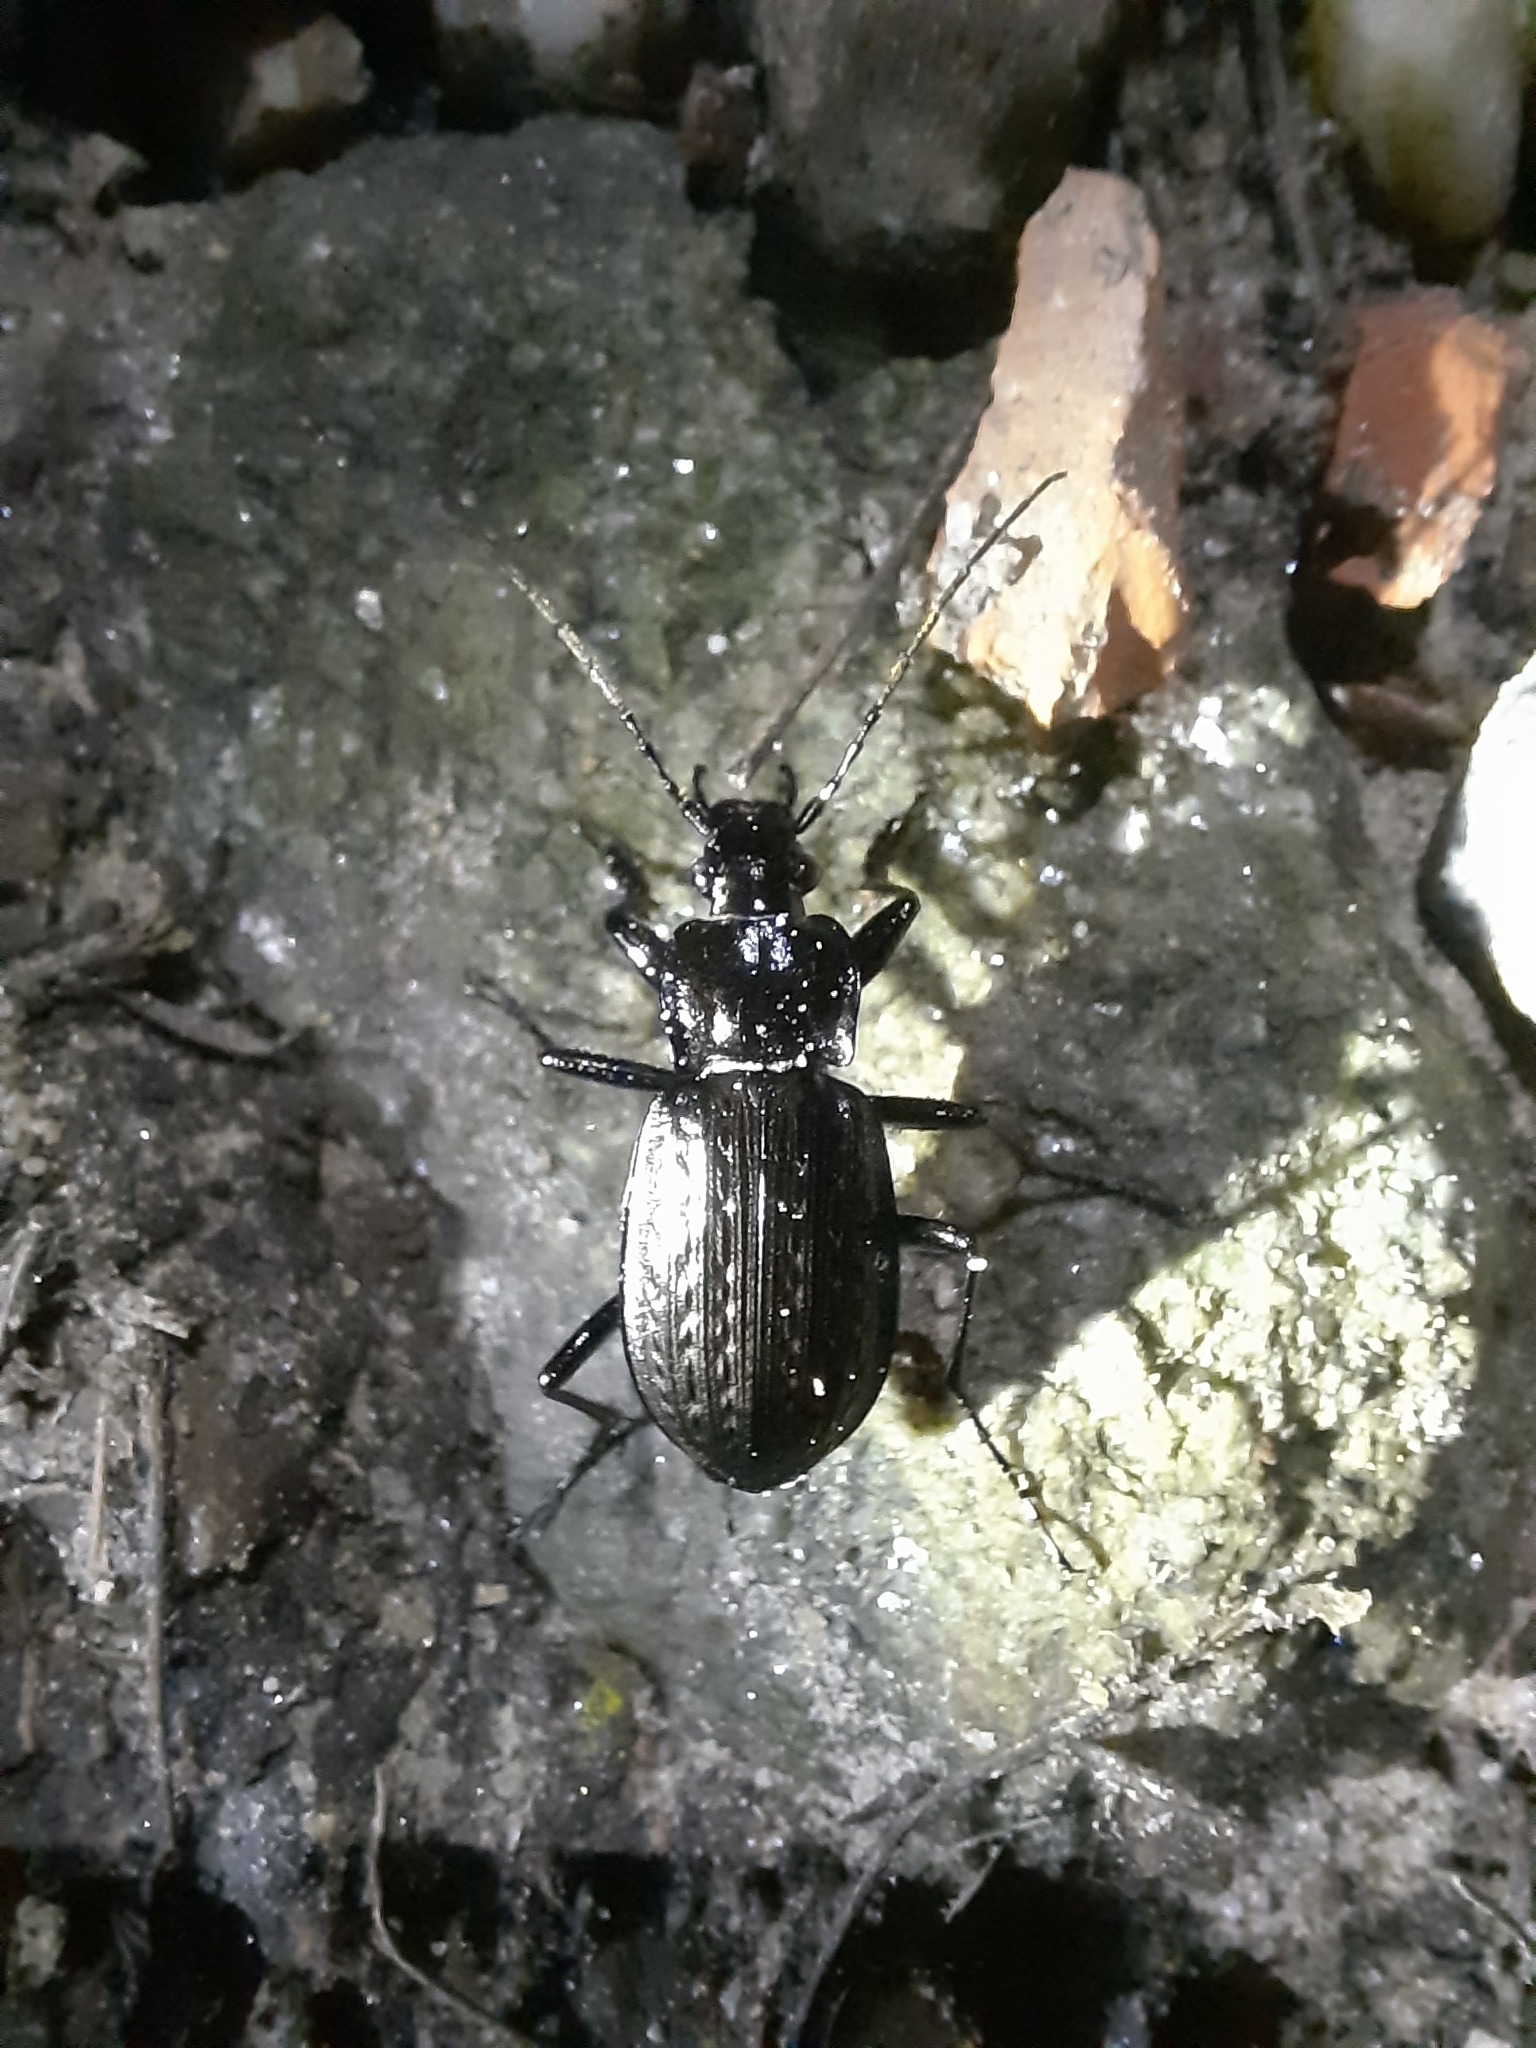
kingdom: Animalia
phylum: Arthropoda
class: Insecta
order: Coleoptera
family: Carabidae
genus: Carabus
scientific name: Carabus granulatus
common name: Granulate ground beetle
